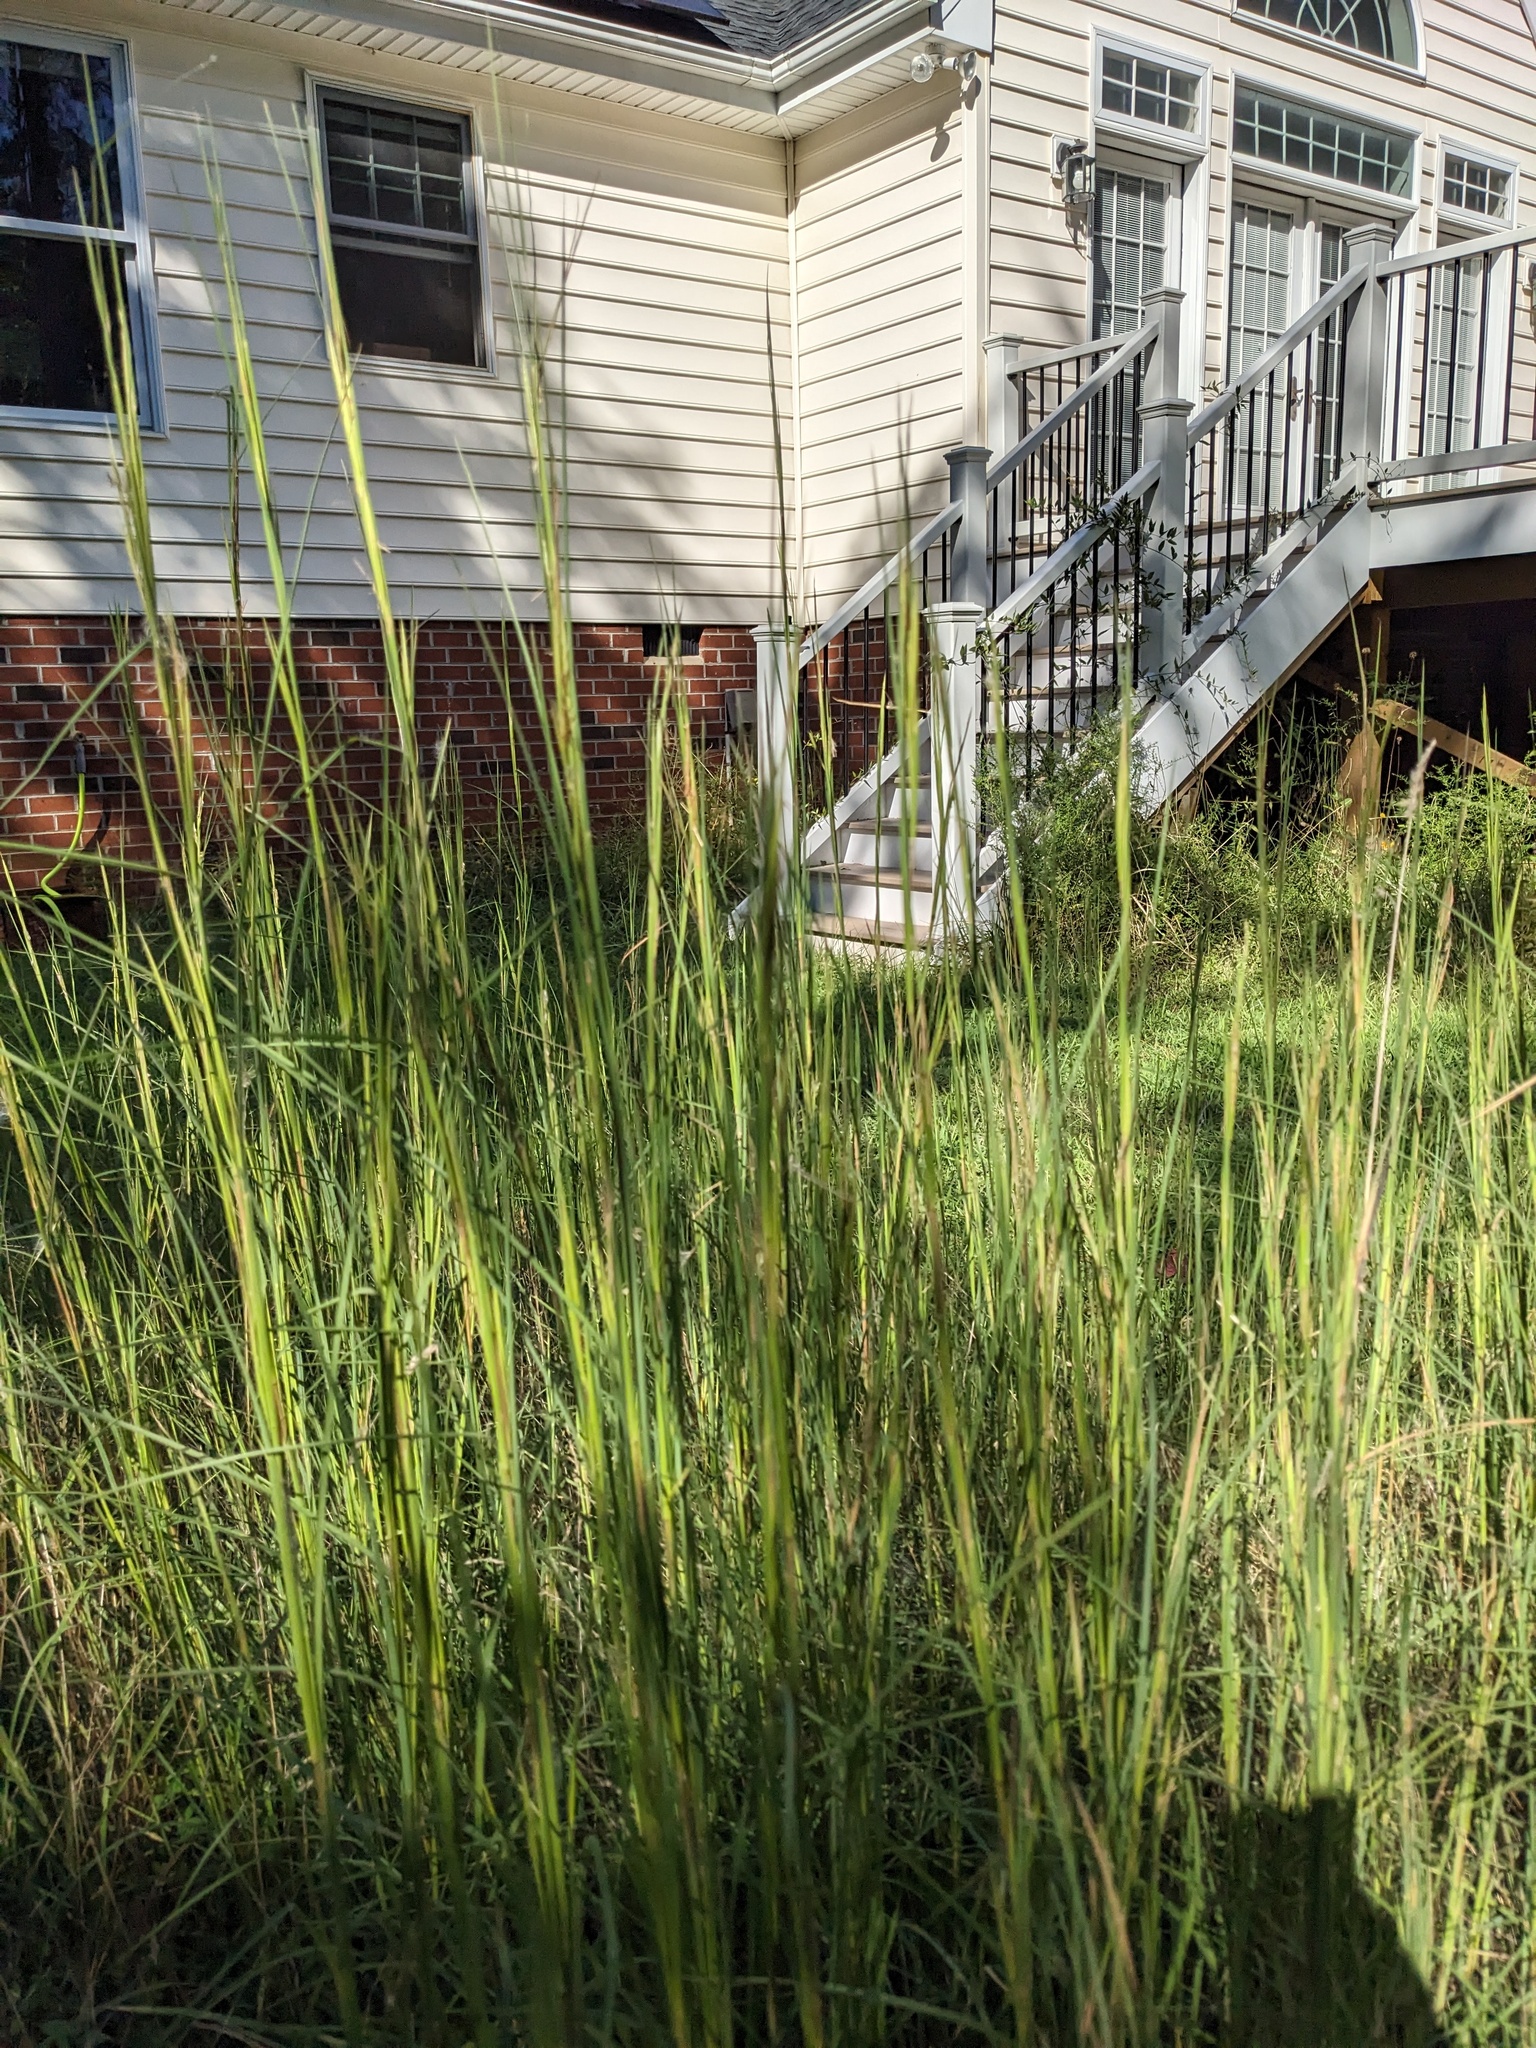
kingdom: Plantae
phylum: Tracheophyta
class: Liliopsida
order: Poales
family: Poaceae
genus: Andropogon
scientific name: Andropogon virginicus
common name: Broomsedge bluestem
